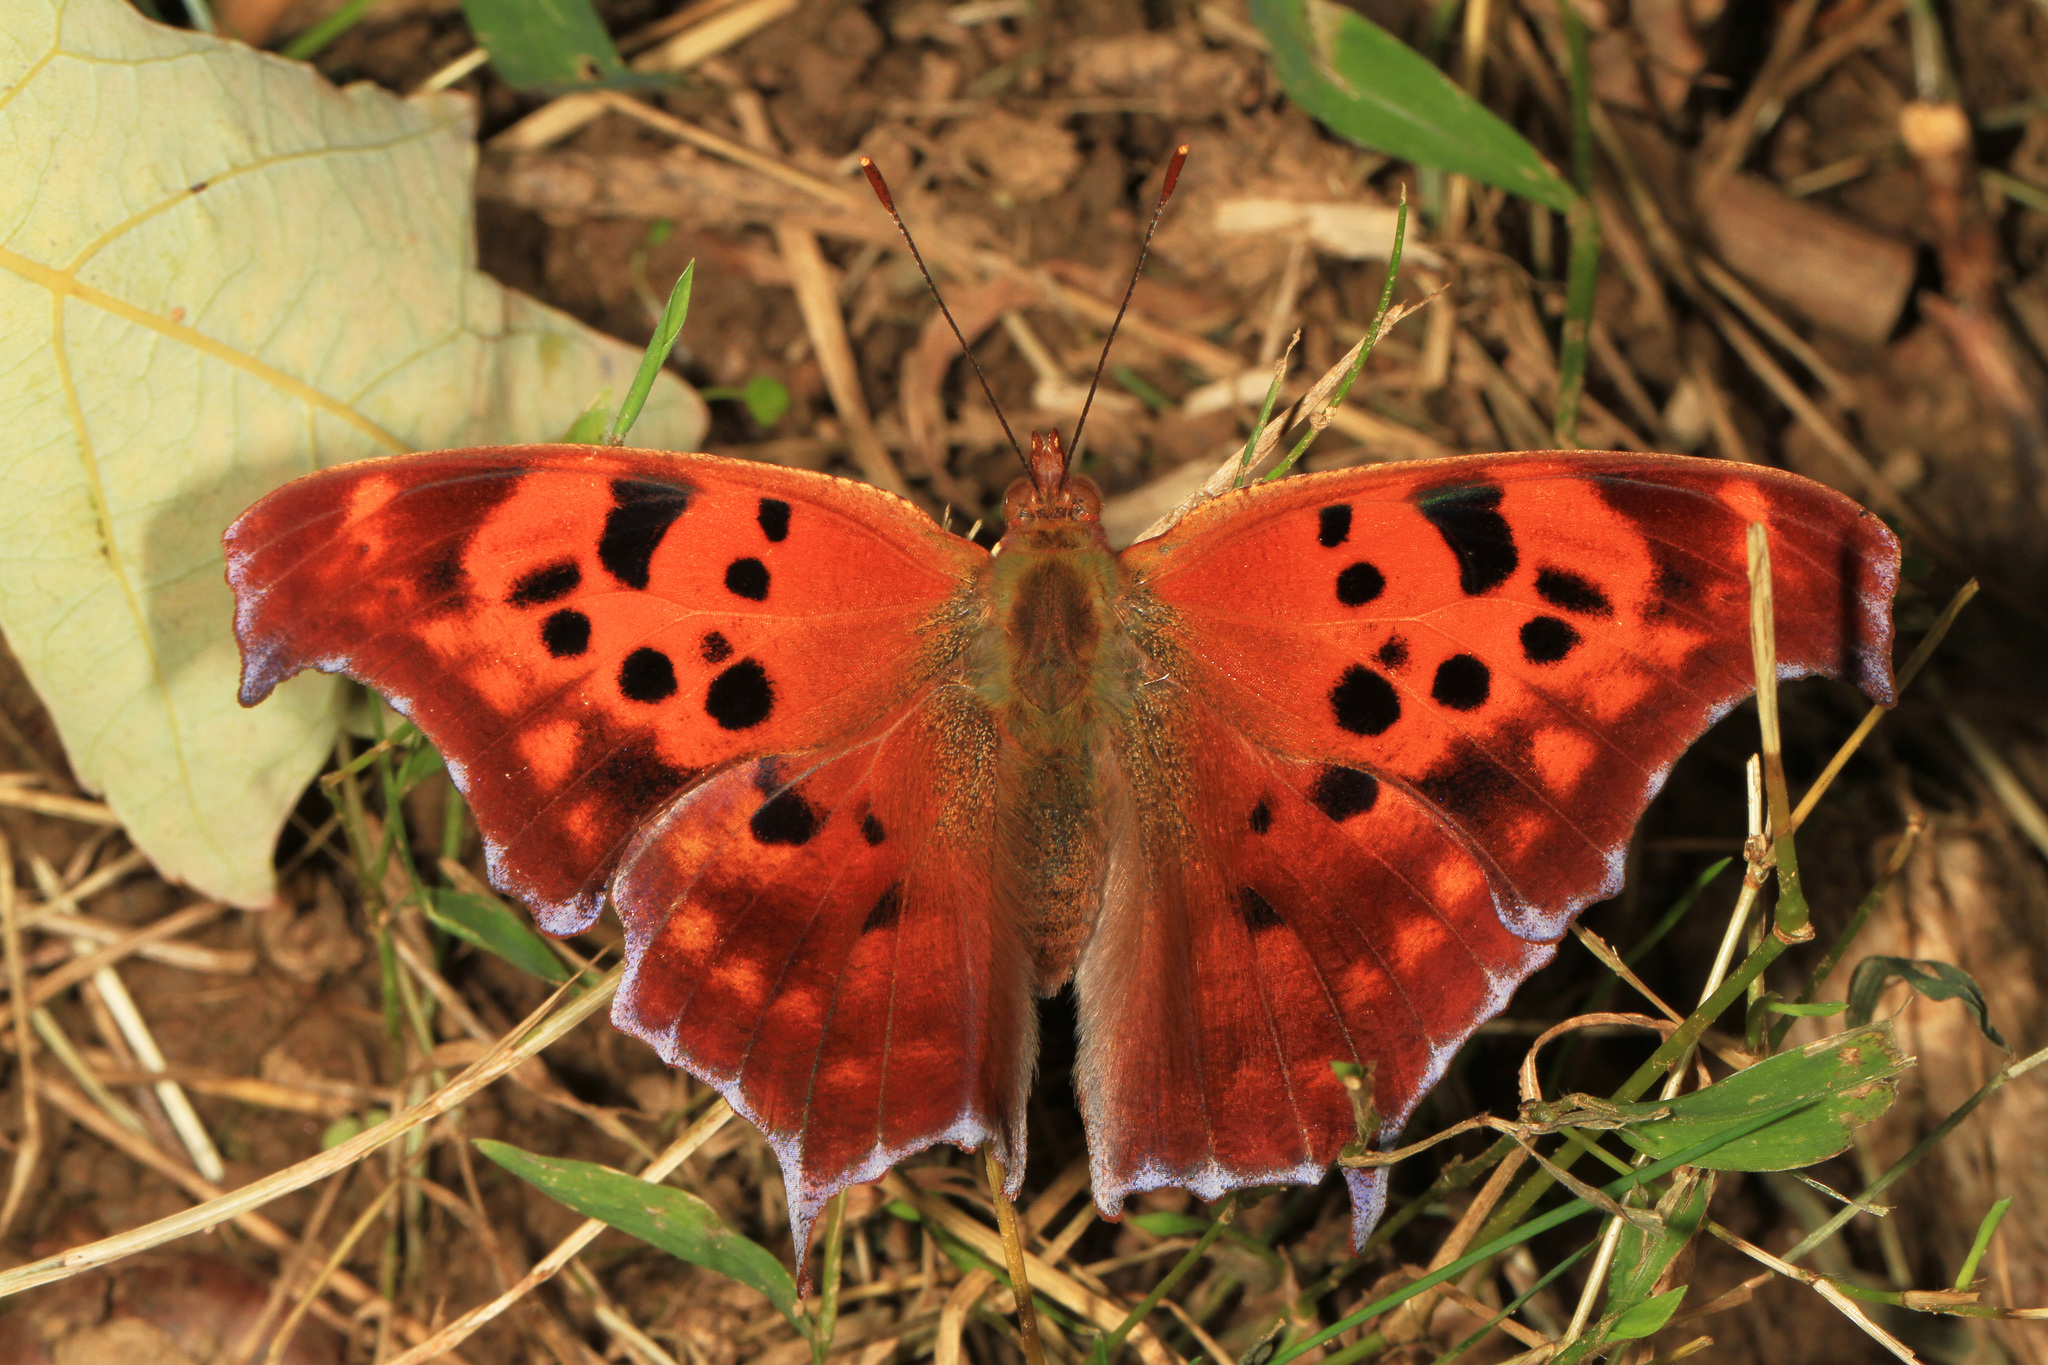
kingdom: Animalia
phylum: Arthropoda
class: Insecta
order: Lepidoptera
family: Nymphalidae
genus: Polygonia
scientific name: Polygonia interrogationis
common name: Question mark
